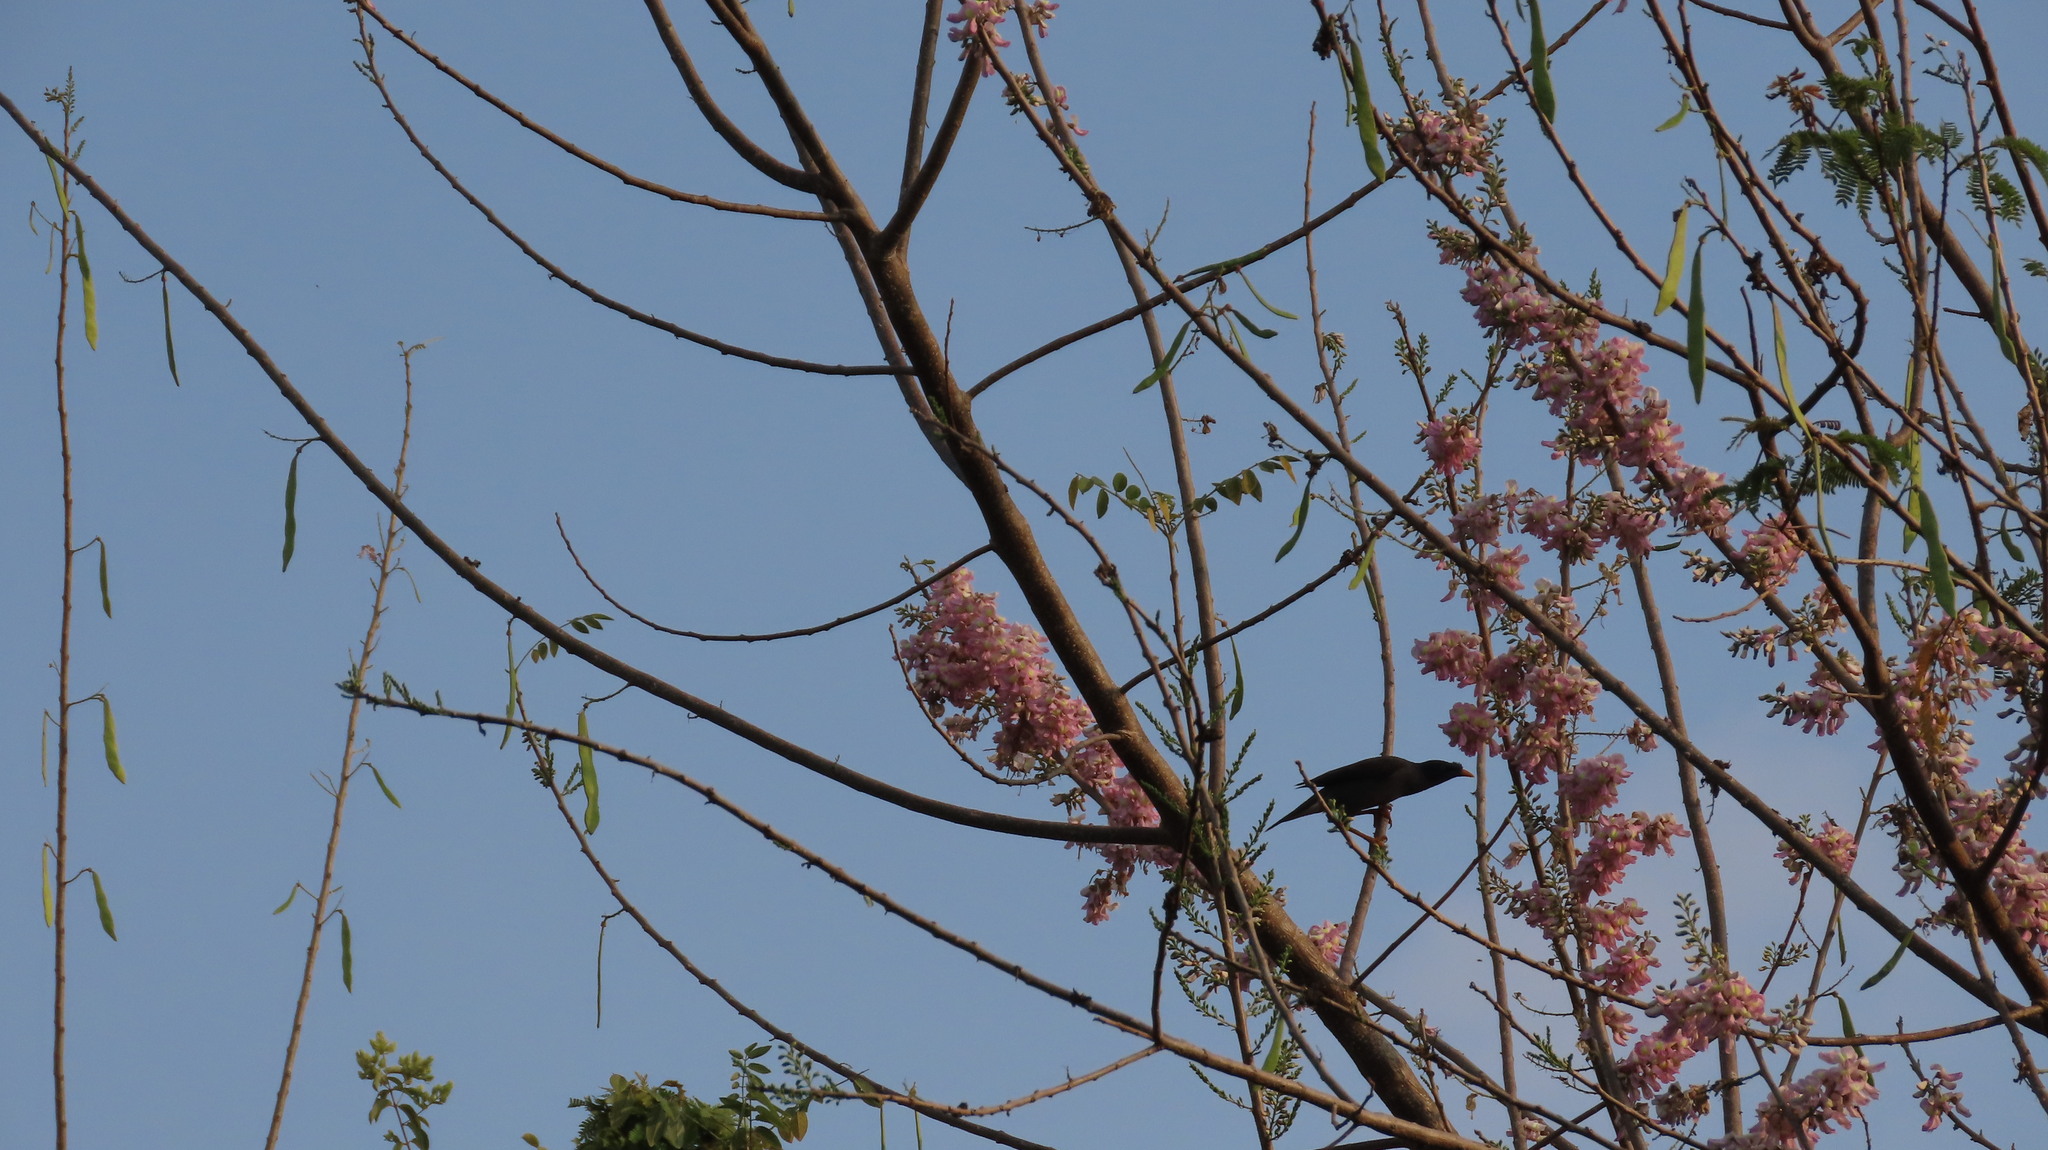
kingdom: Animalia
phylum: Chordata
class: Aves
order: Passeriformes
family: Sturnidae
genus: Acridotheres
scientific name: Acridotheres fuscus
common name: Jungle myna
